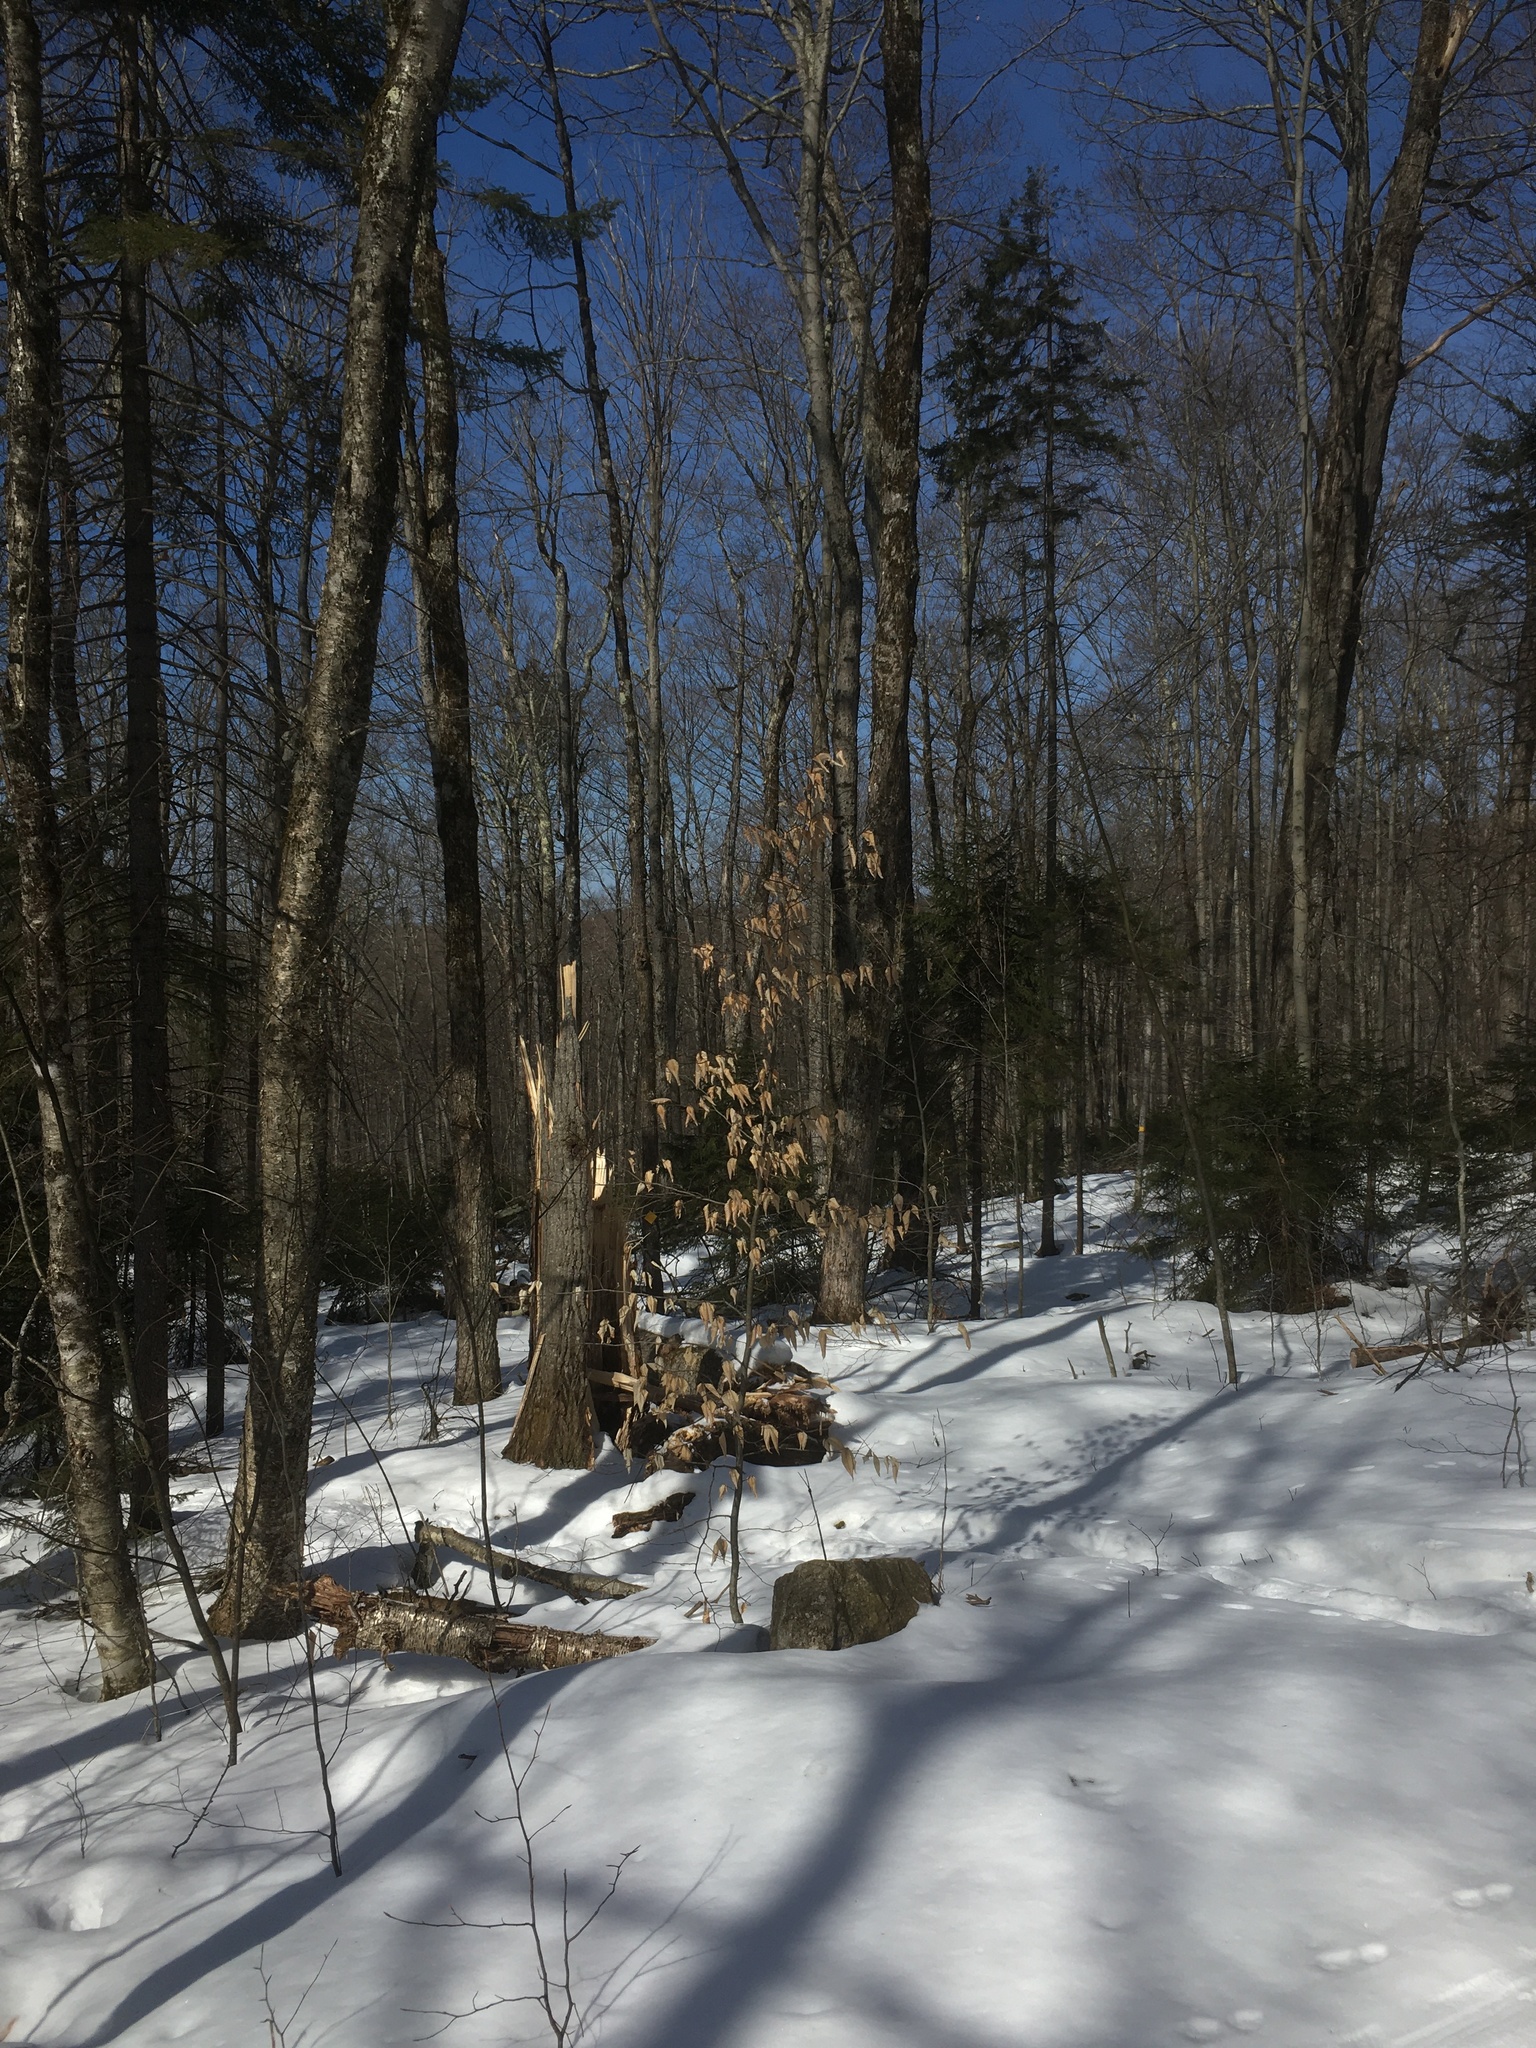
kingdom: Plantae
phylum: Tracheophyta
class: Magnoliopsida
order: Fagales
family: Fagaceae
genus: Fagus
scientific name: Fagus grandifolia
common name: American beech
